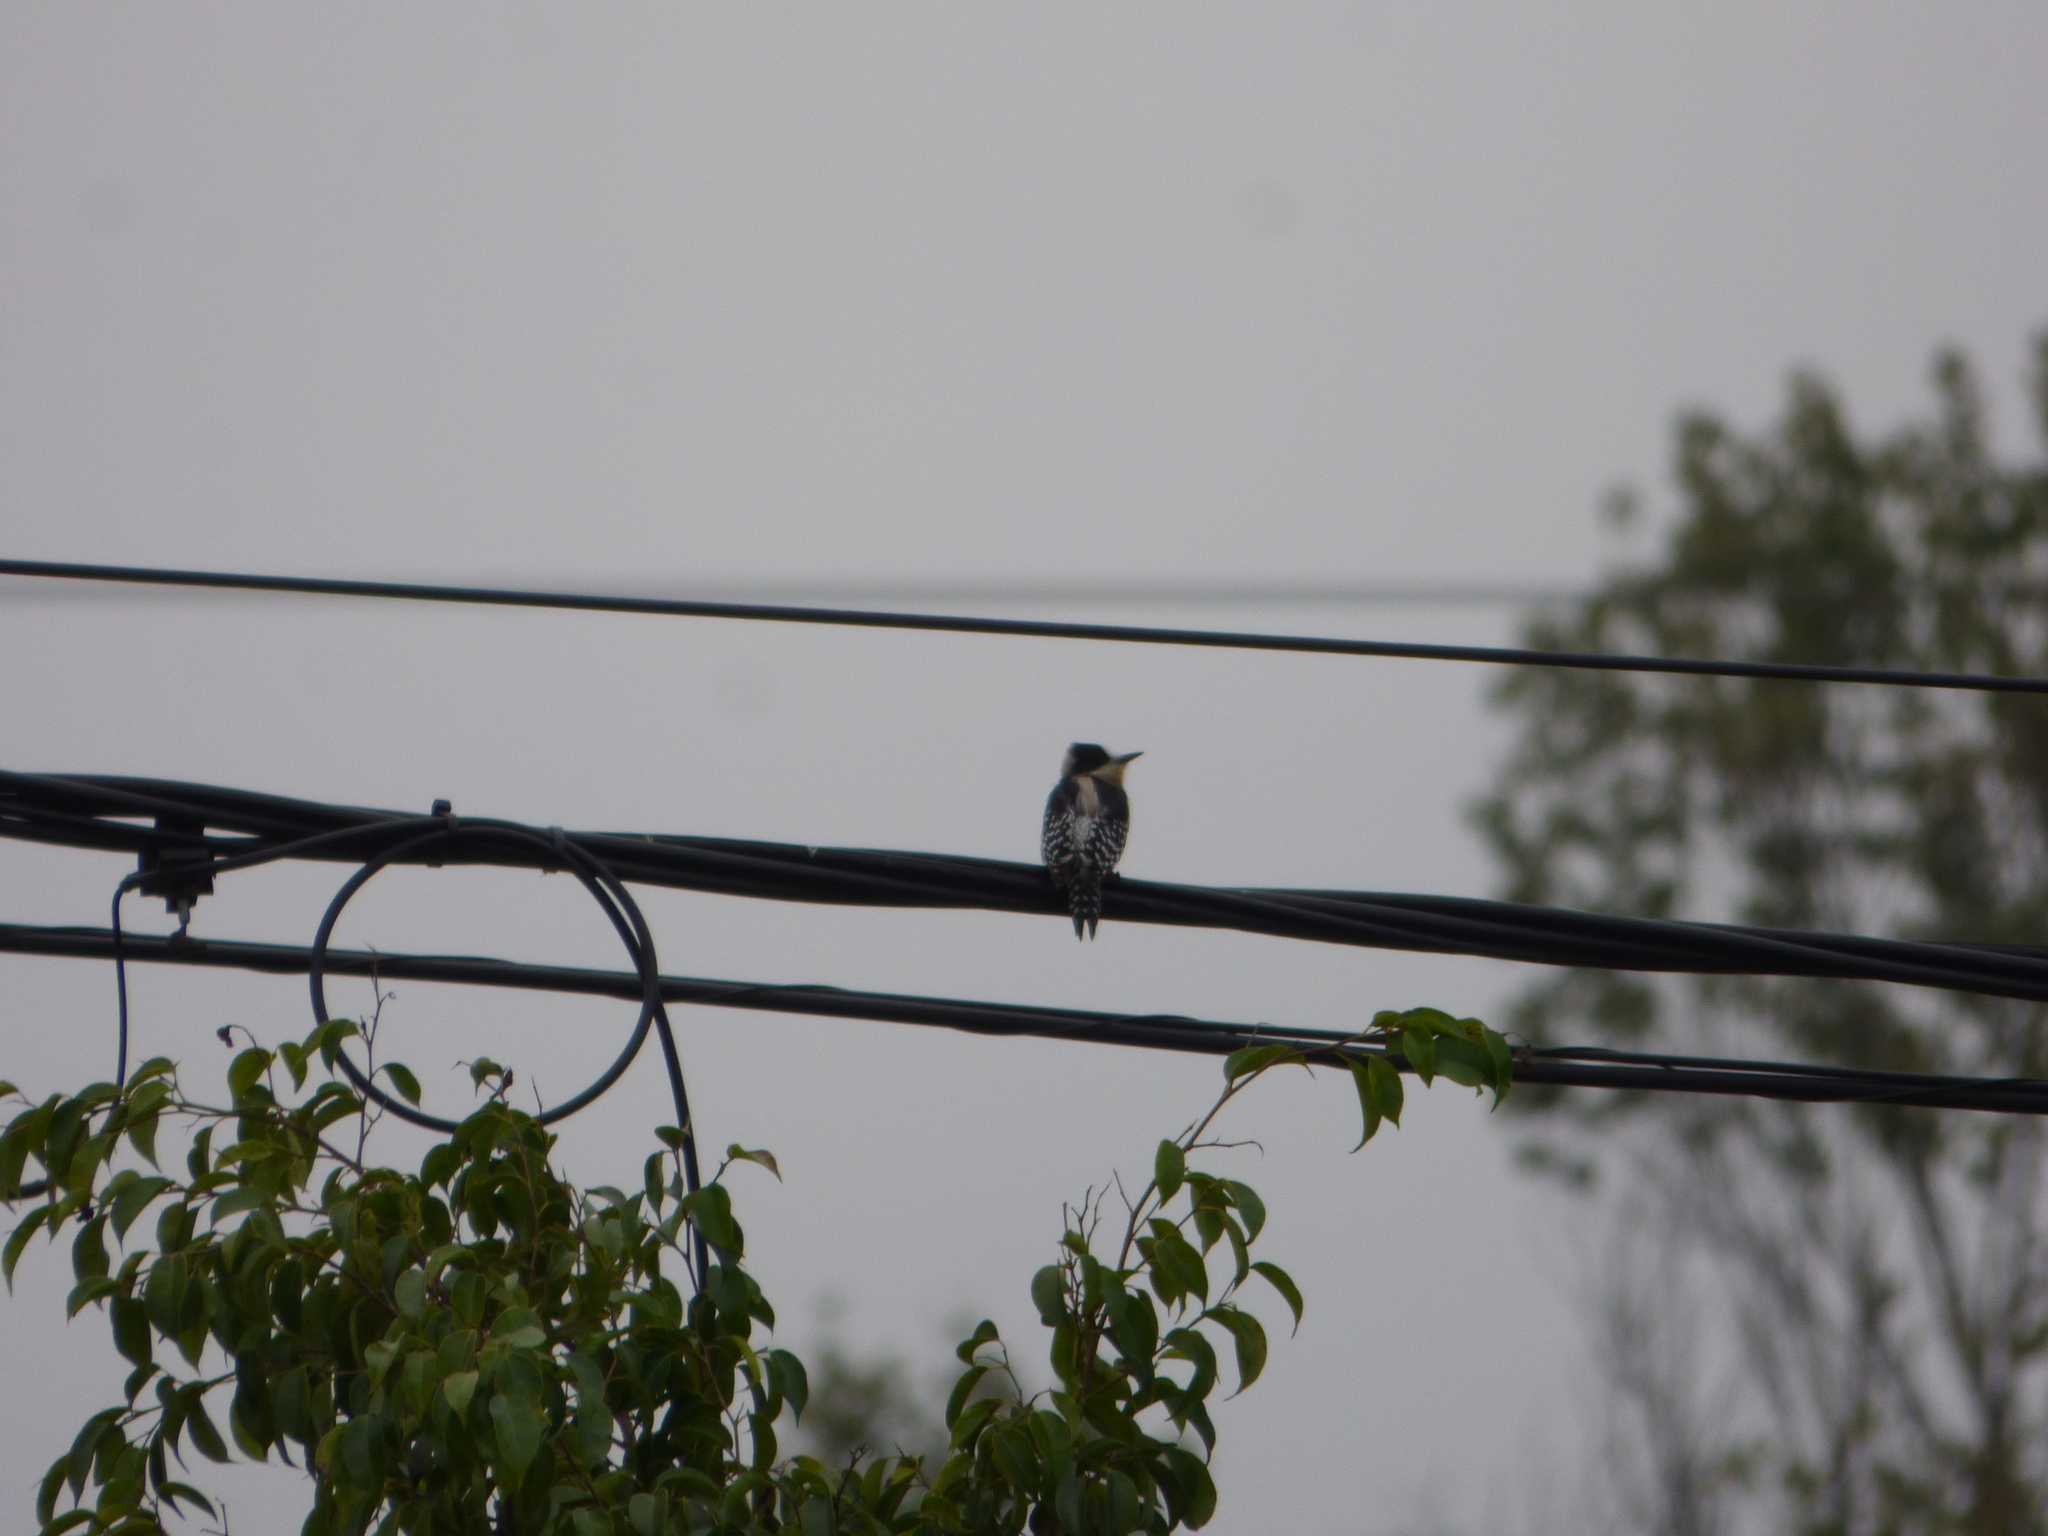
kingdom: Animalia
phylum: Chordata
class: Aves
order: Piciformes
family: Picidae
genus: Melanerpes
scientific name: Melanerpes cactorum
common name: White-fronted woodpecker
